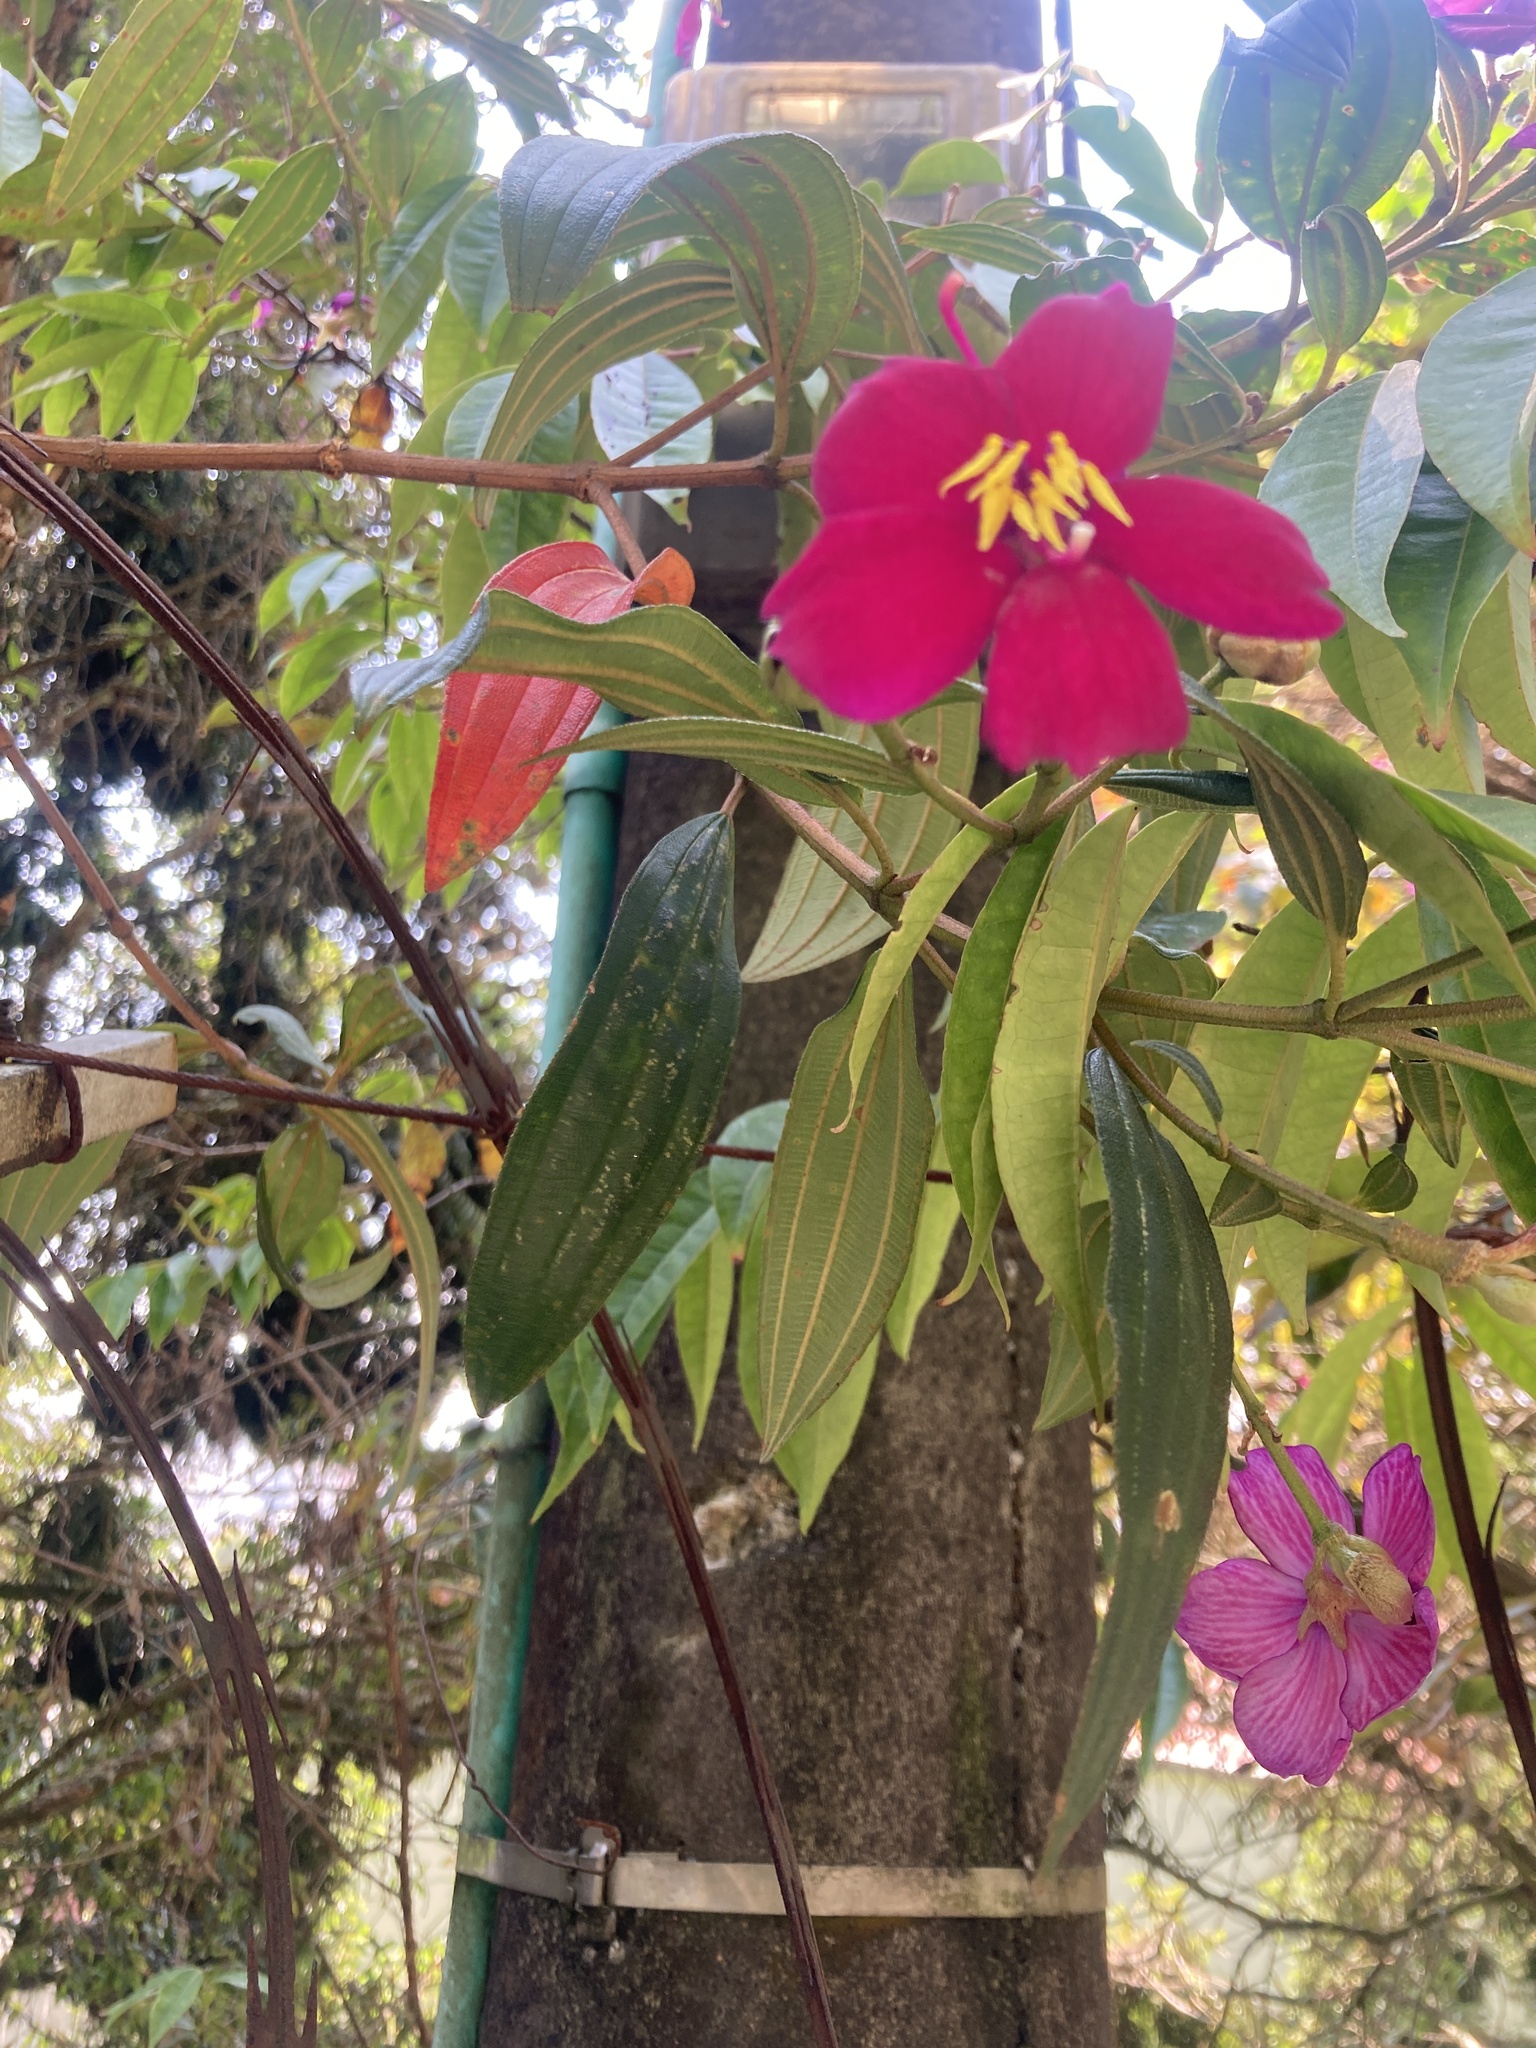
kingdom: Plantae
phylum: Tracheophyta
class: Magnoliopsida
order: Myrtales
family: Melastomataceae
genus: Andesanthus
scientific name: Andesanthus lepidotus
